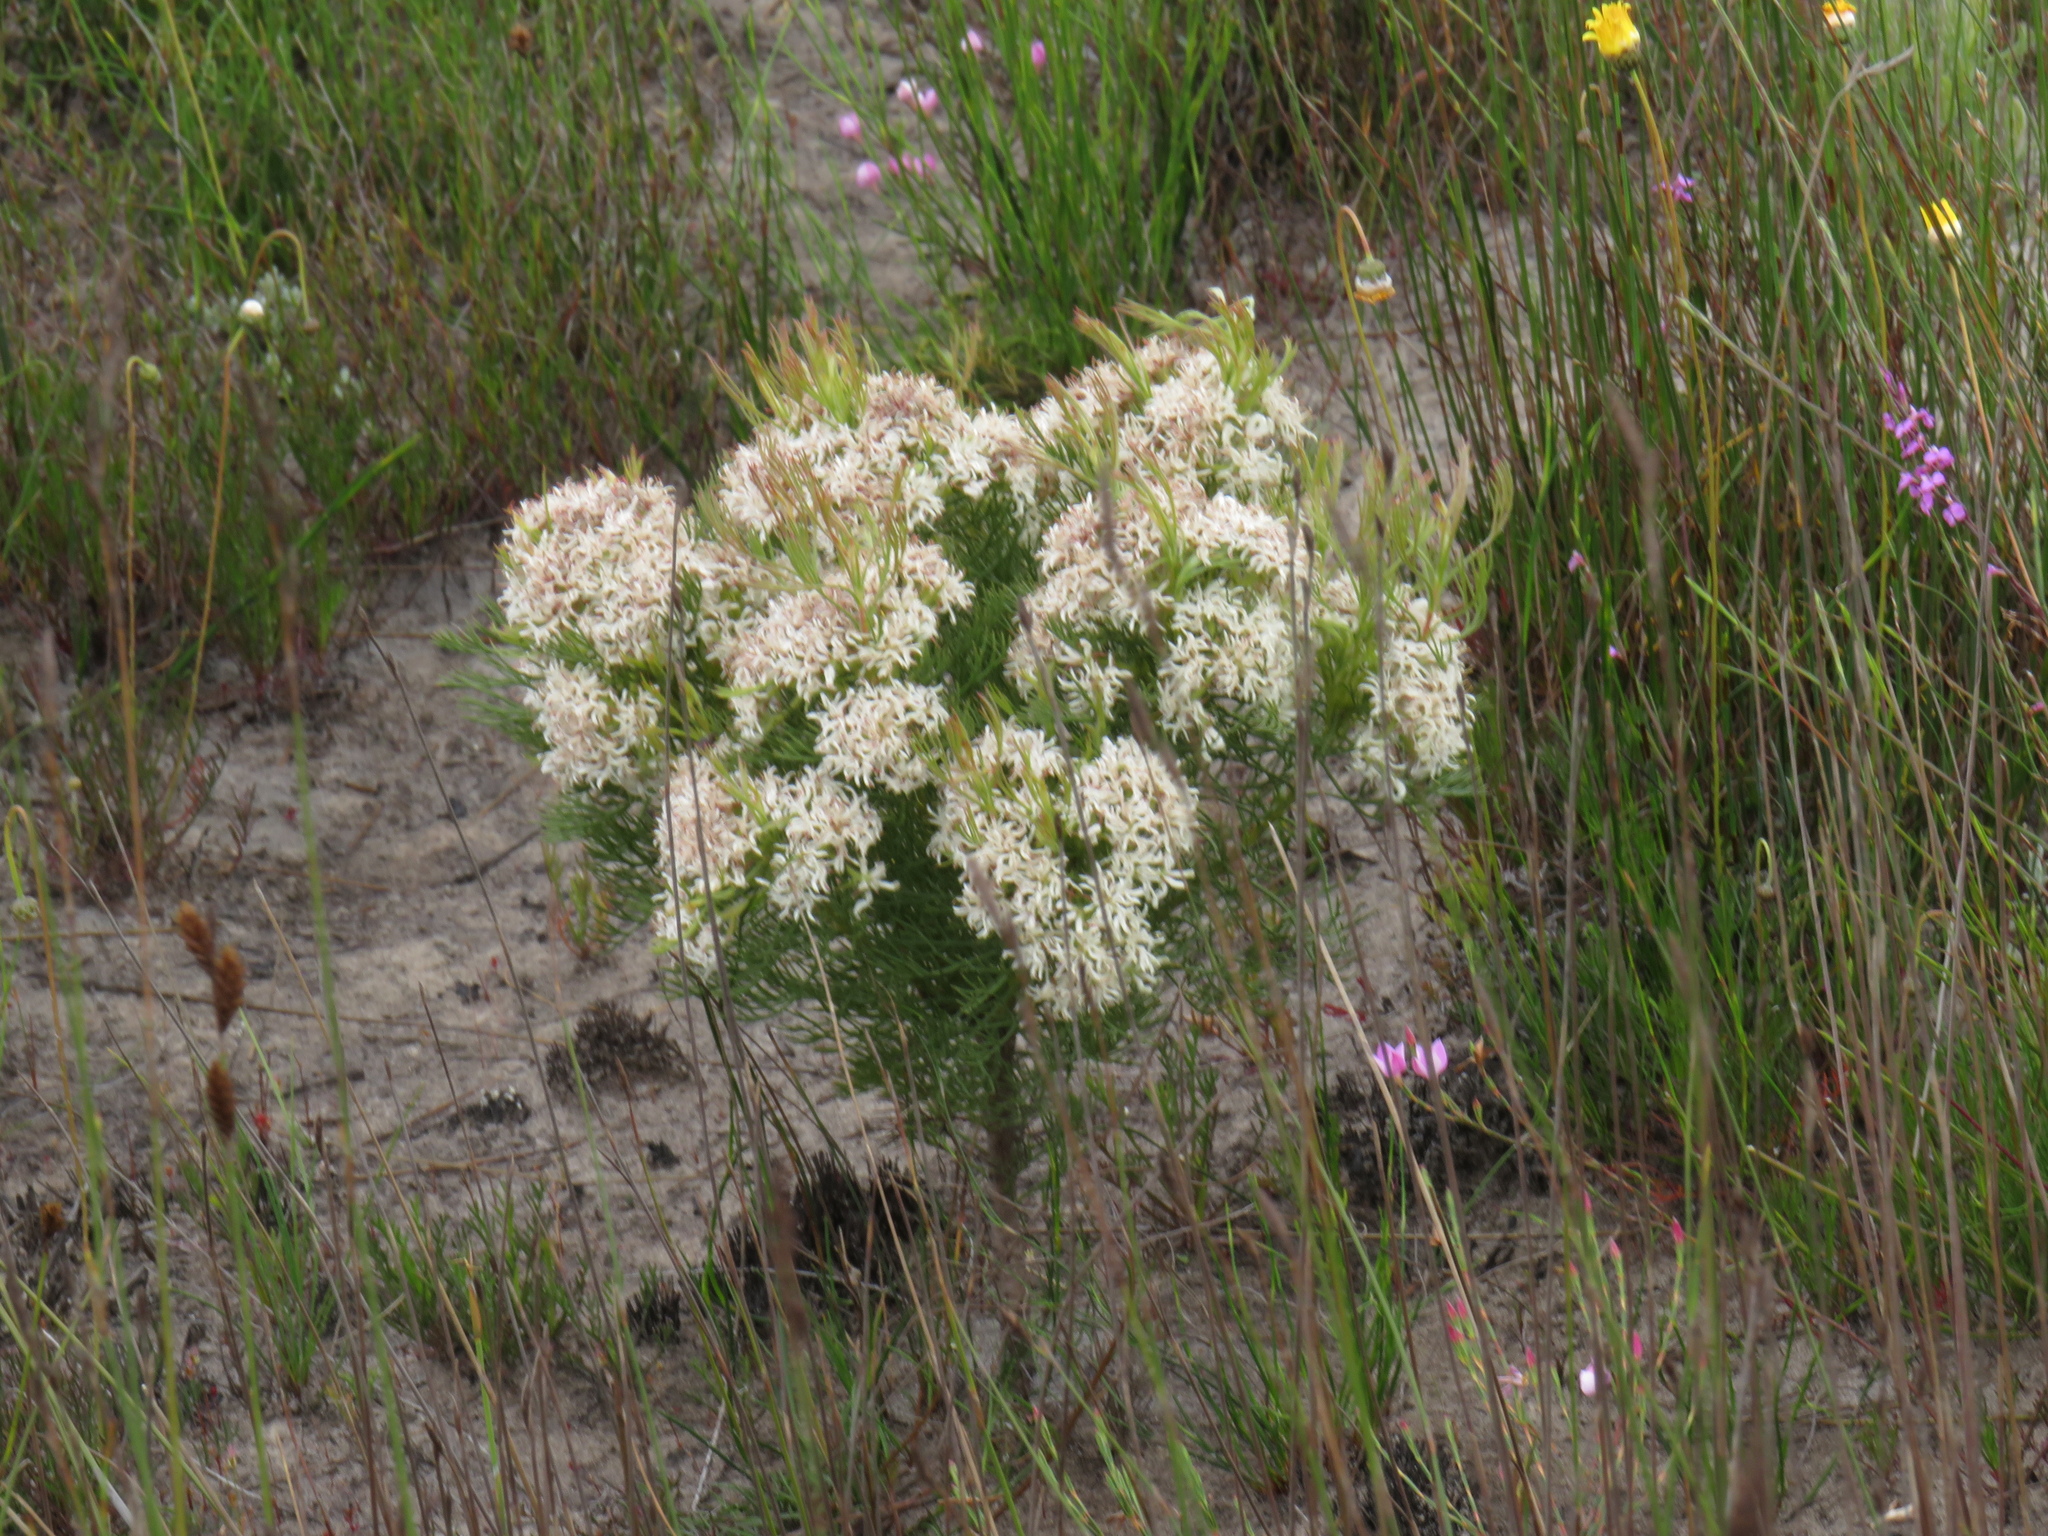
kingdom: Plantae
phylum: Tracheophyta
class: Magnoliopsida
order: Proteales
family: Proteaceae
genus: Serruria
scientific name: Serruria decipiens
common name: Sandveld spiderhead
